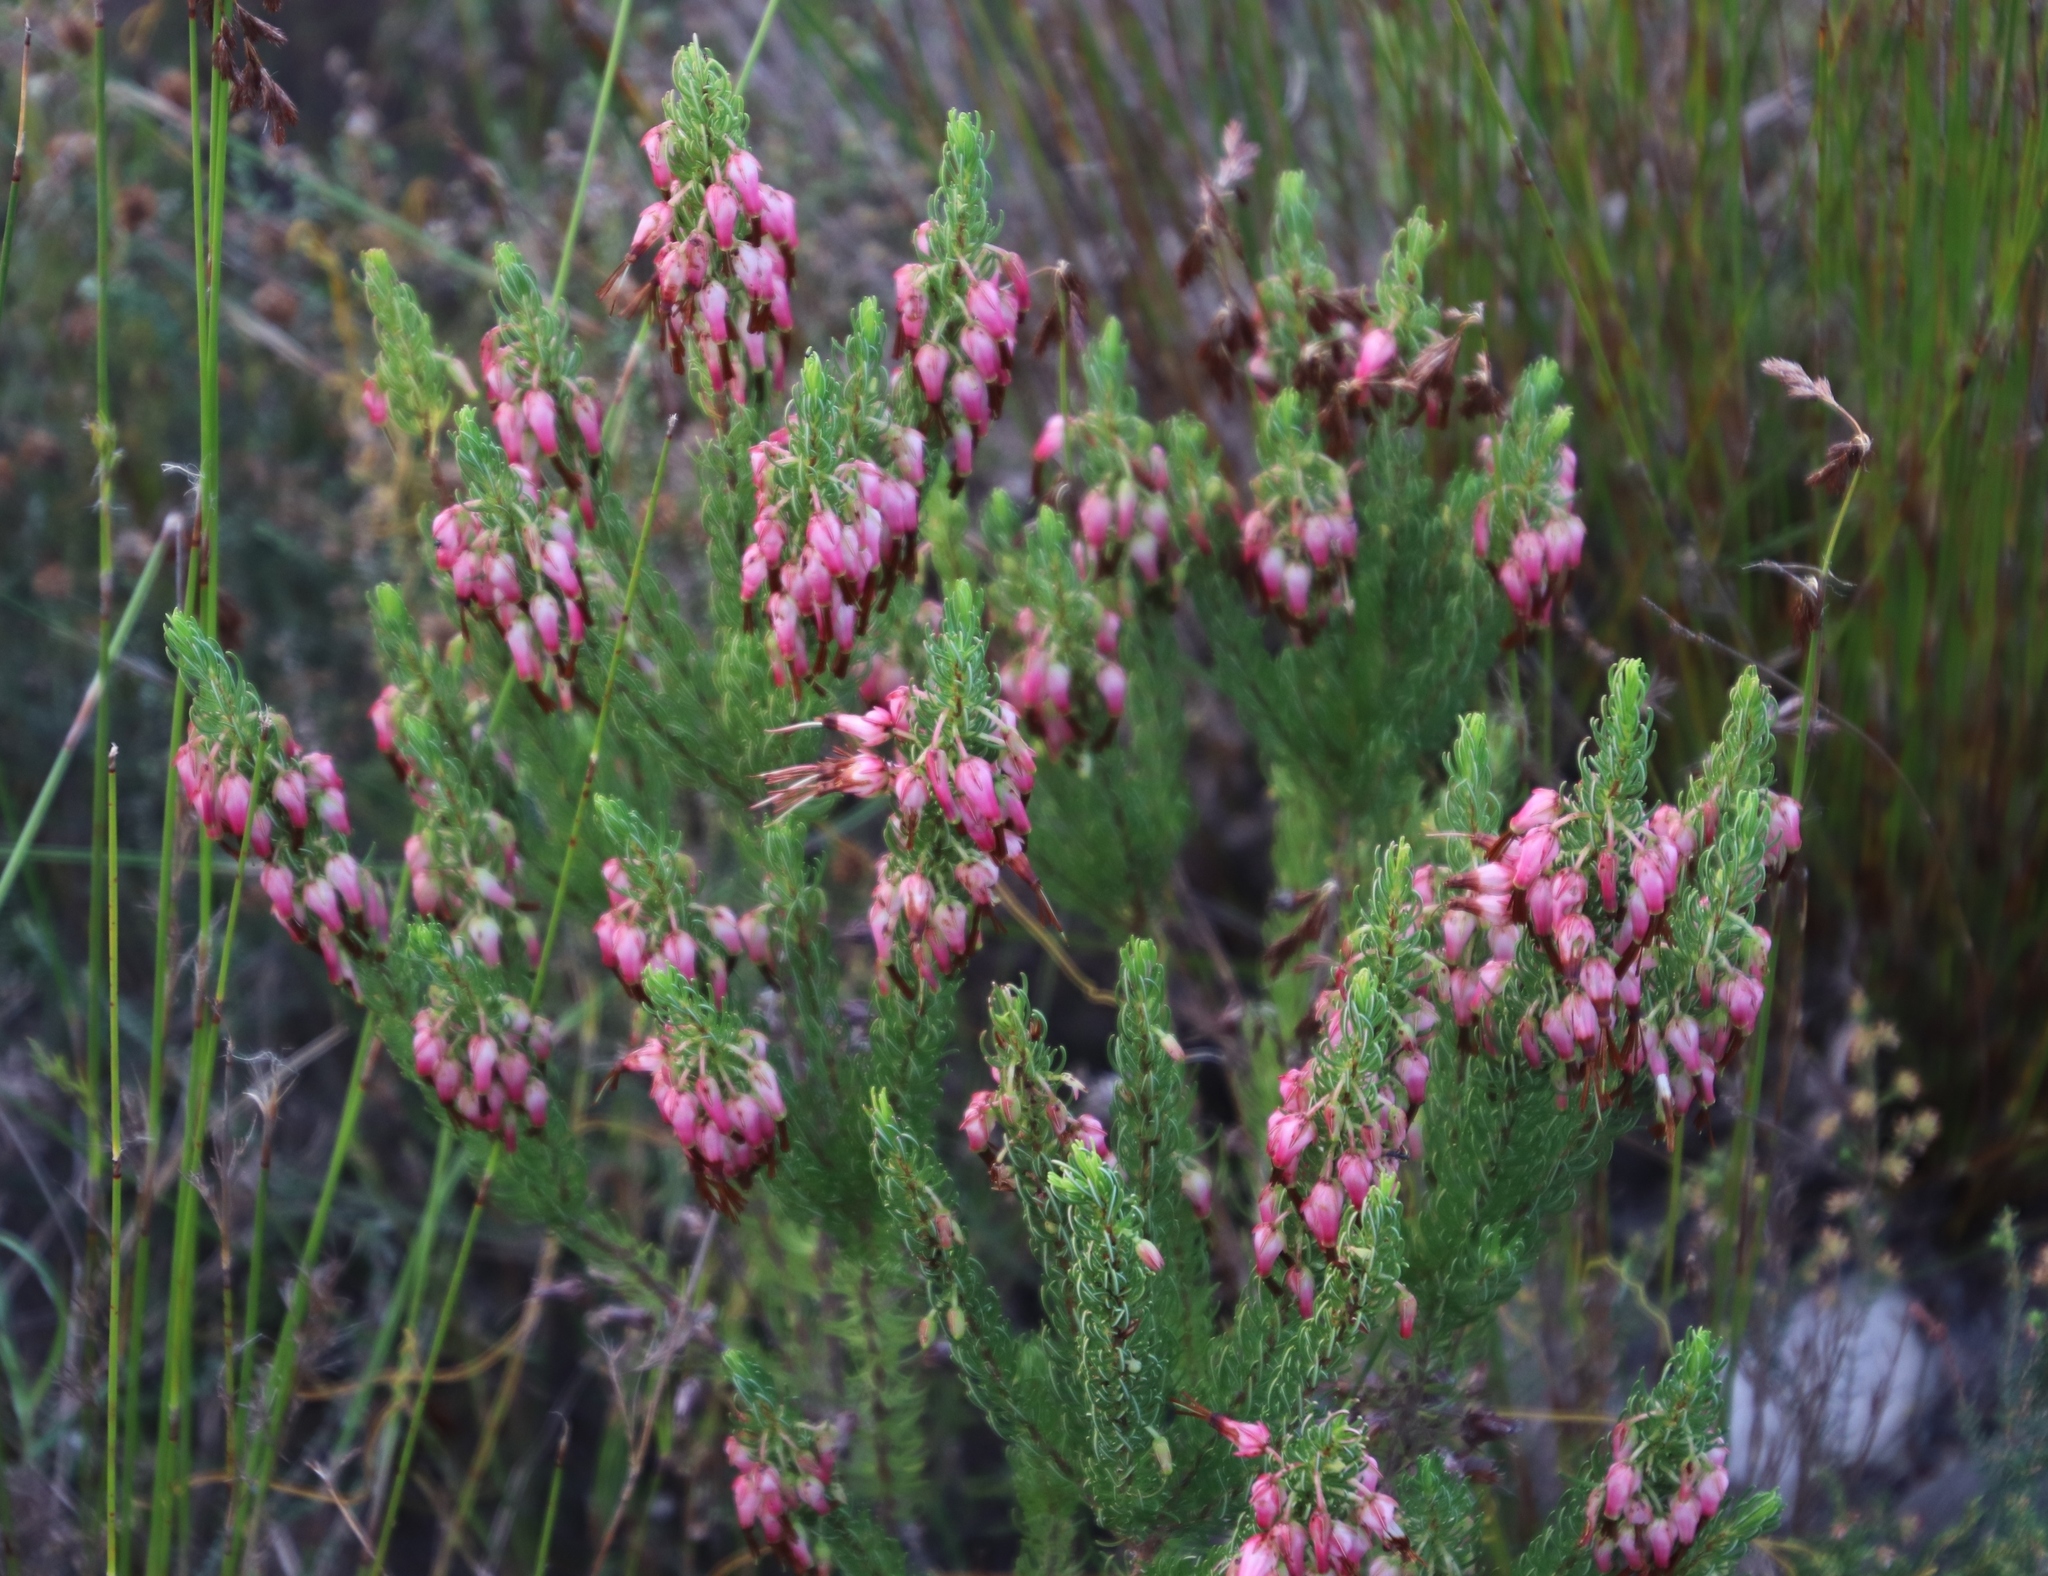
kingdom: Plantae
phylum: Tracheophyta
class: Magnoliopsida
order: Ericales
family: Ericaceae
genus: Erica
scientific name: Erica plukenetii
